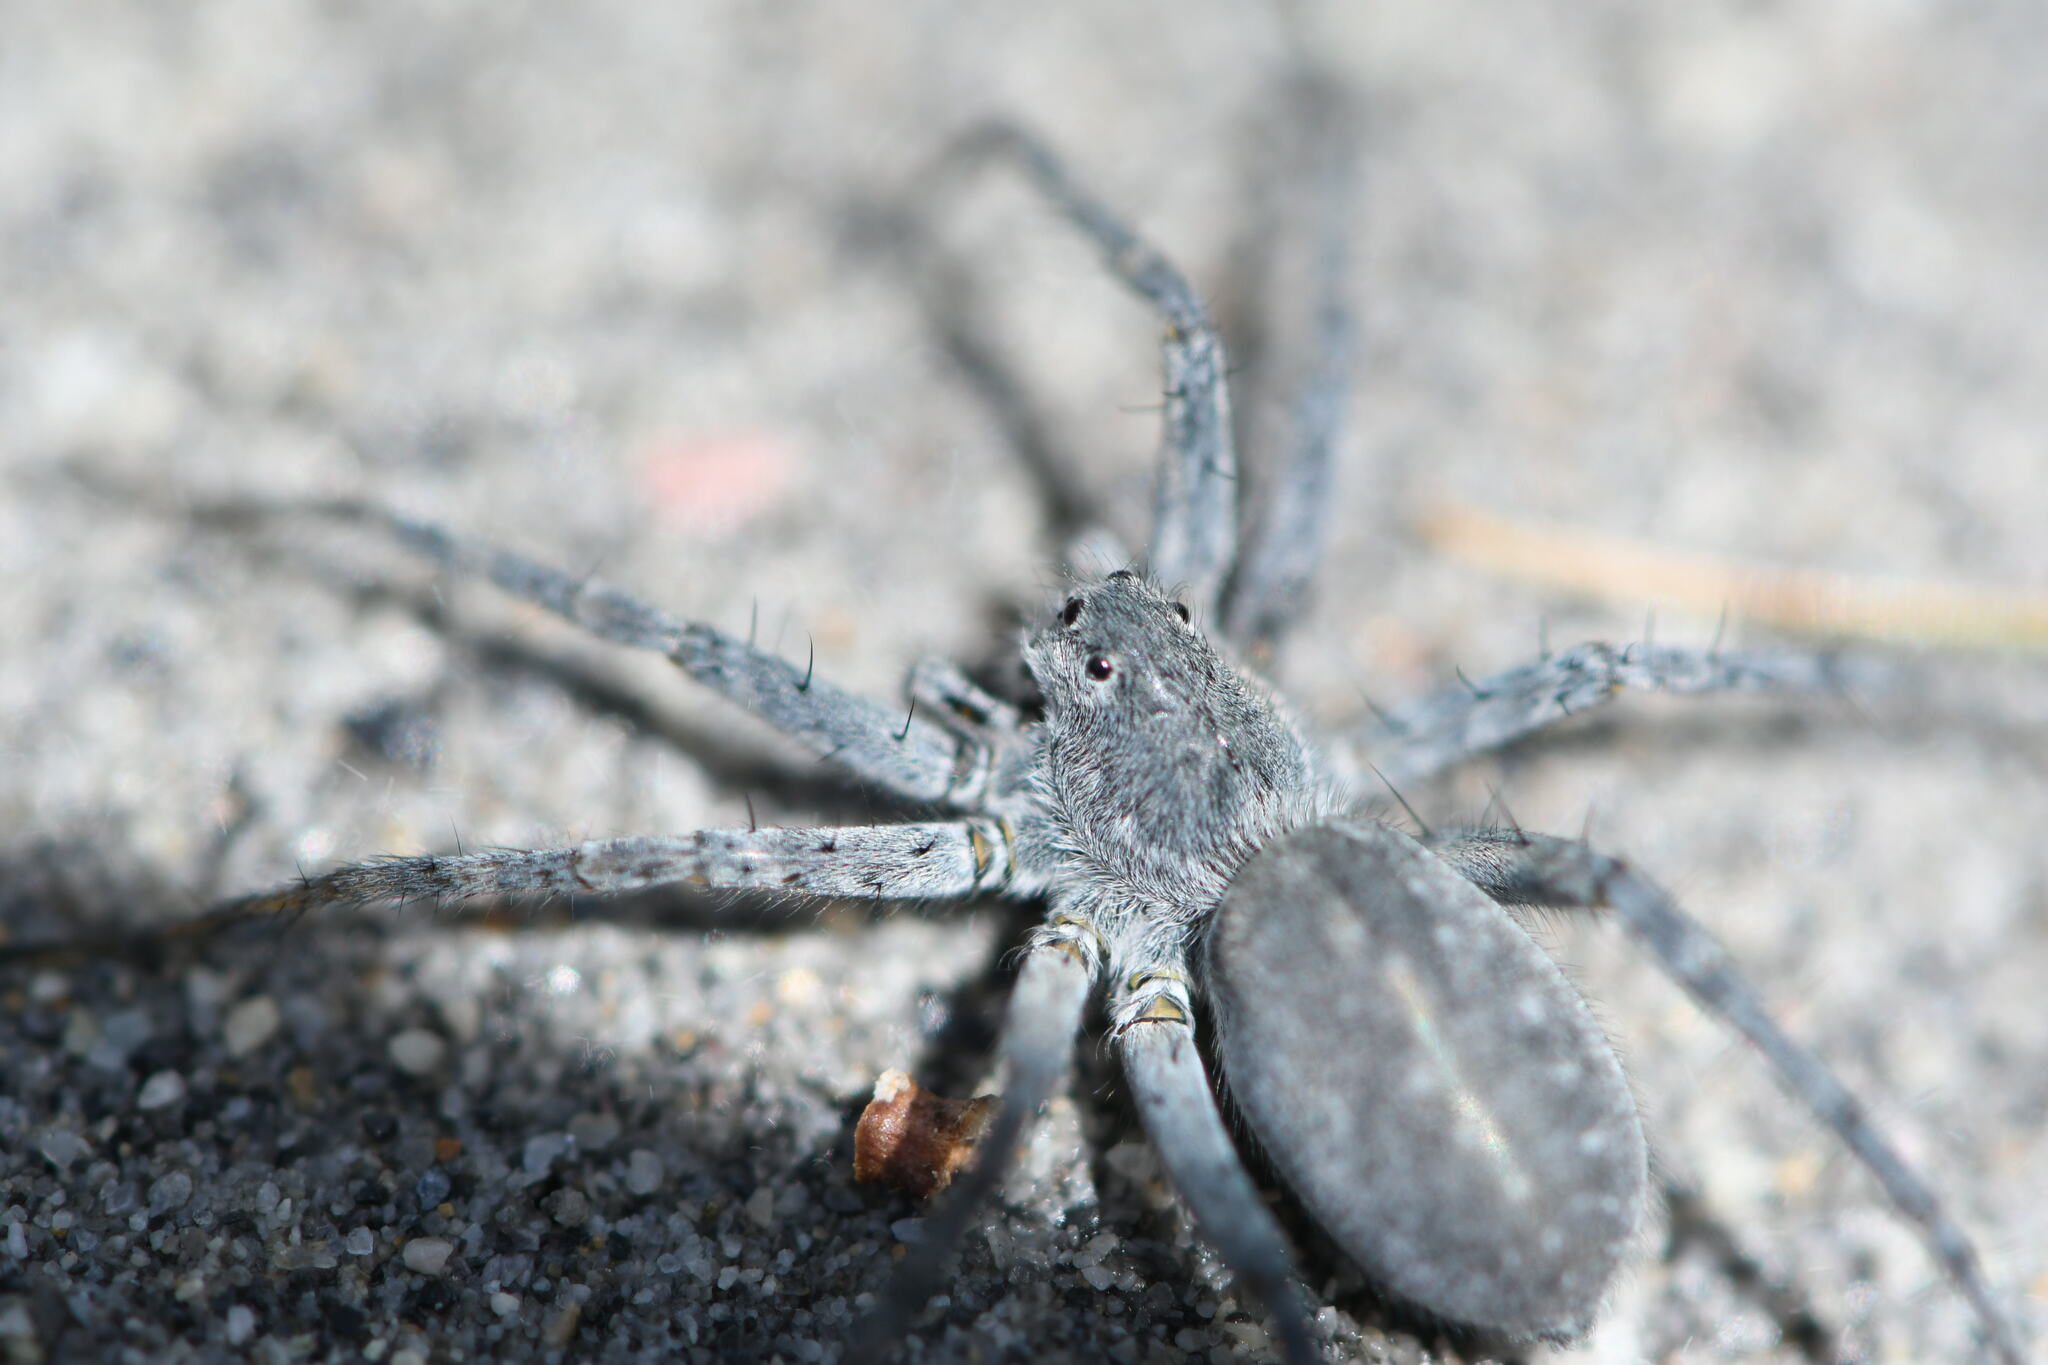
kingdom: Animalia
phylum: Arthropoda
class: Arachnida
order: Araneae
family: Lycosidae
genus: Pardosa
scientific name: Pardosa wagleri
